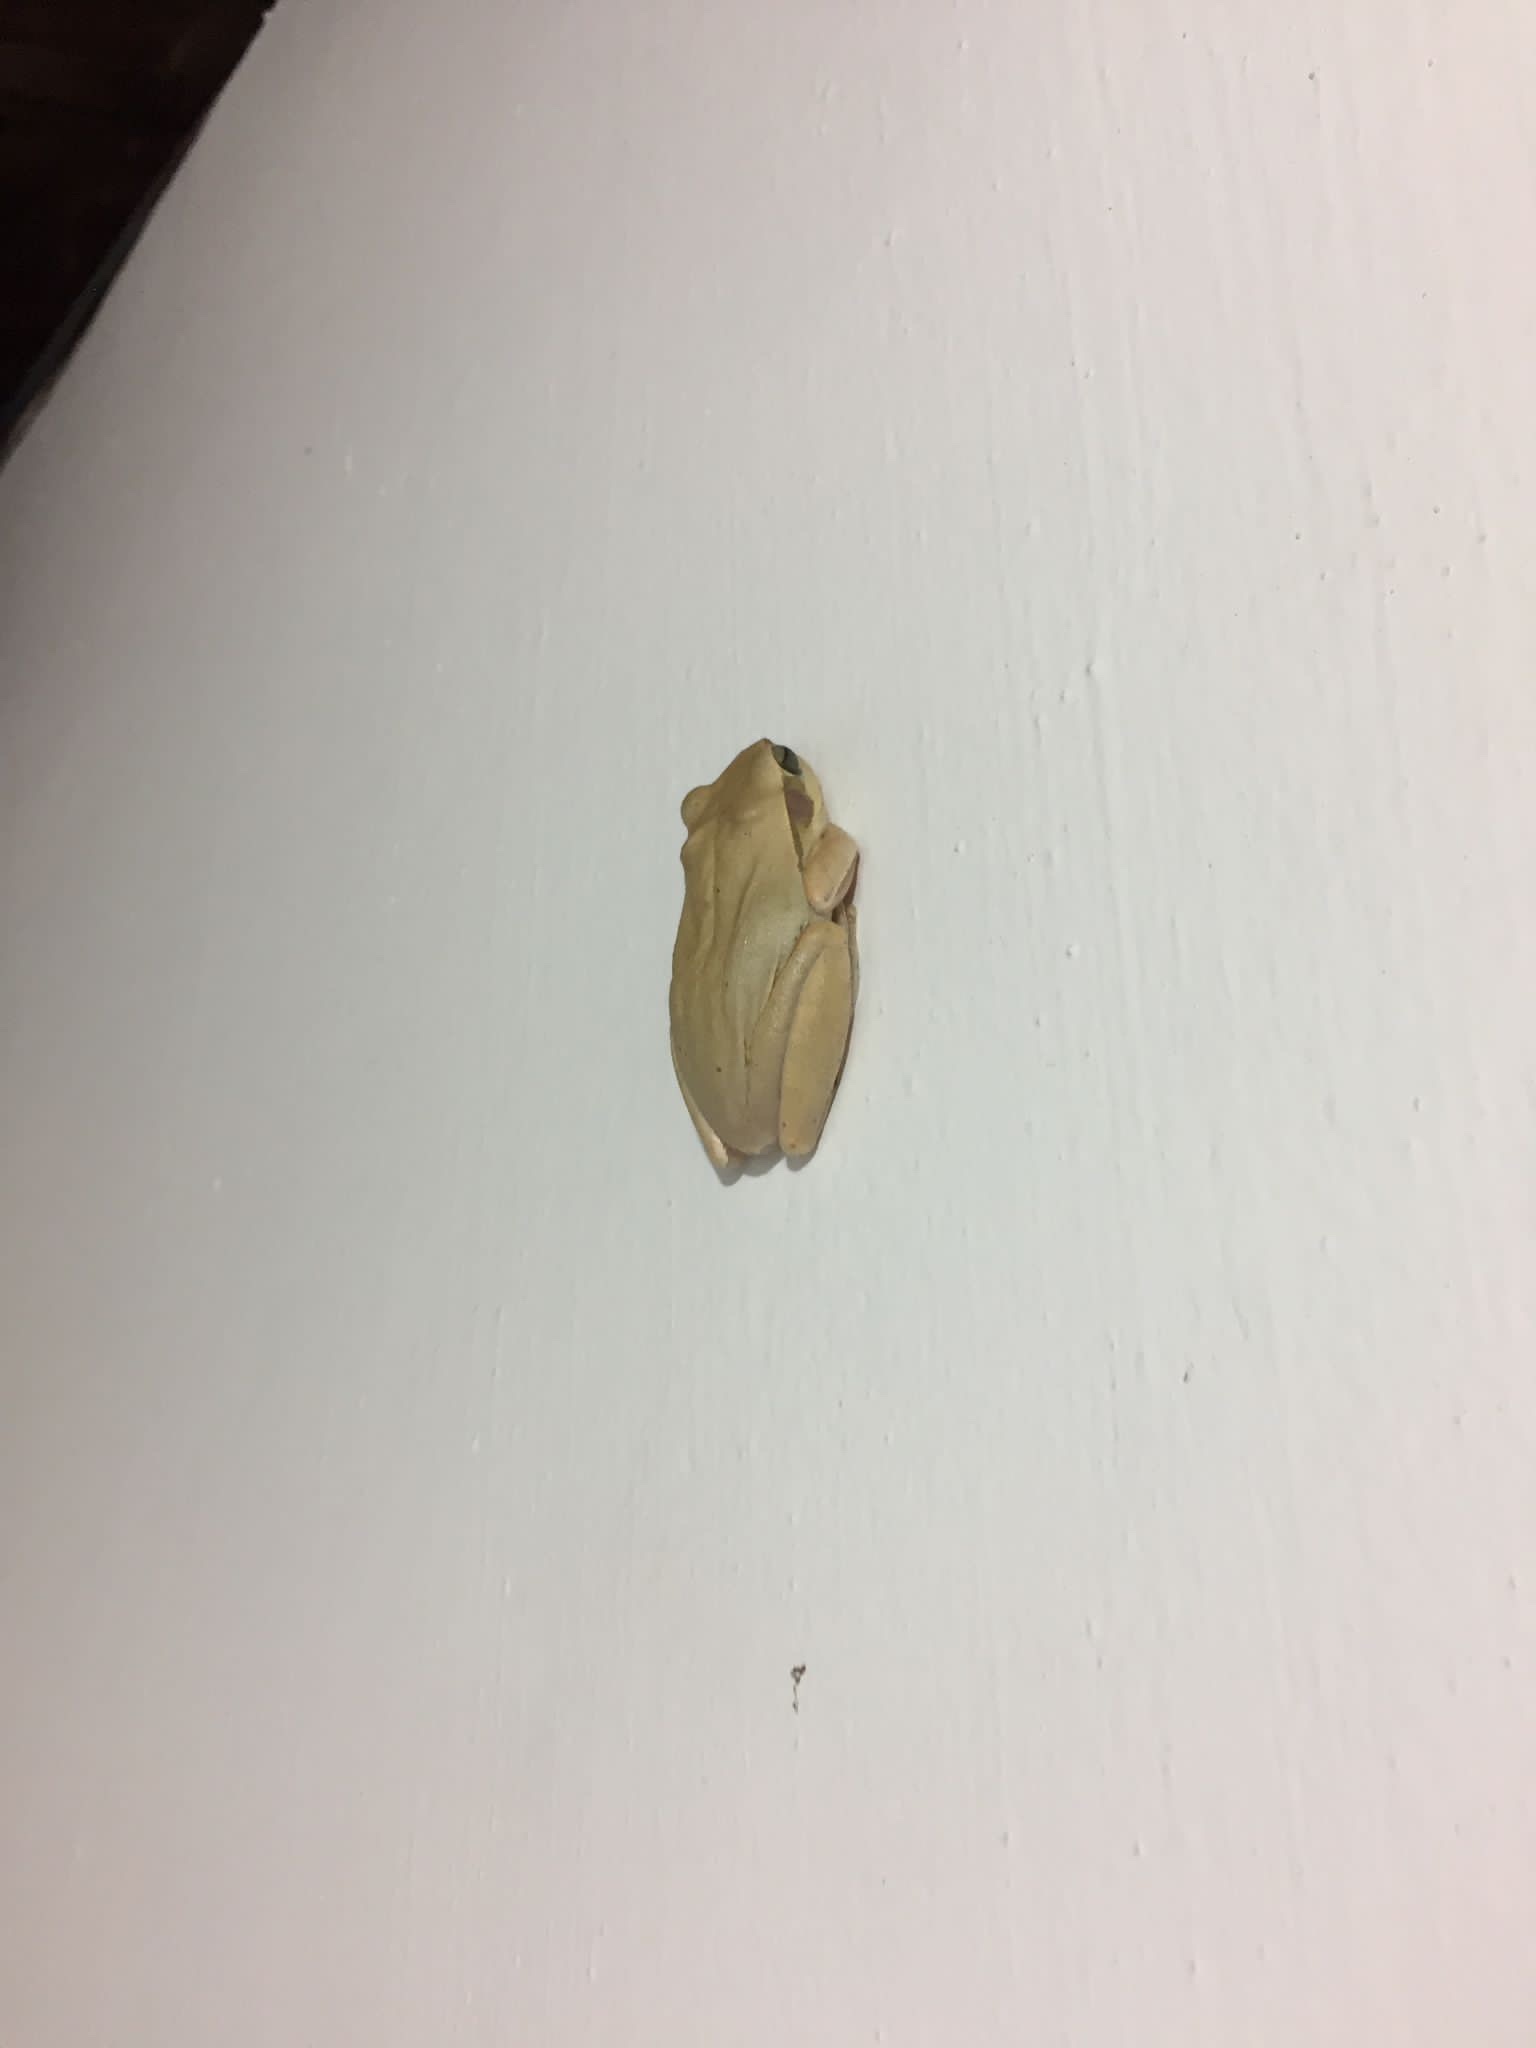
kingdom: Animalia
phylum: Chordata
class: Amphibia
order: Anura
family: Rhacophoridae
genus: Polypedates
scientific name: Polypedates maculatus
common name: Himalayan tree frog
